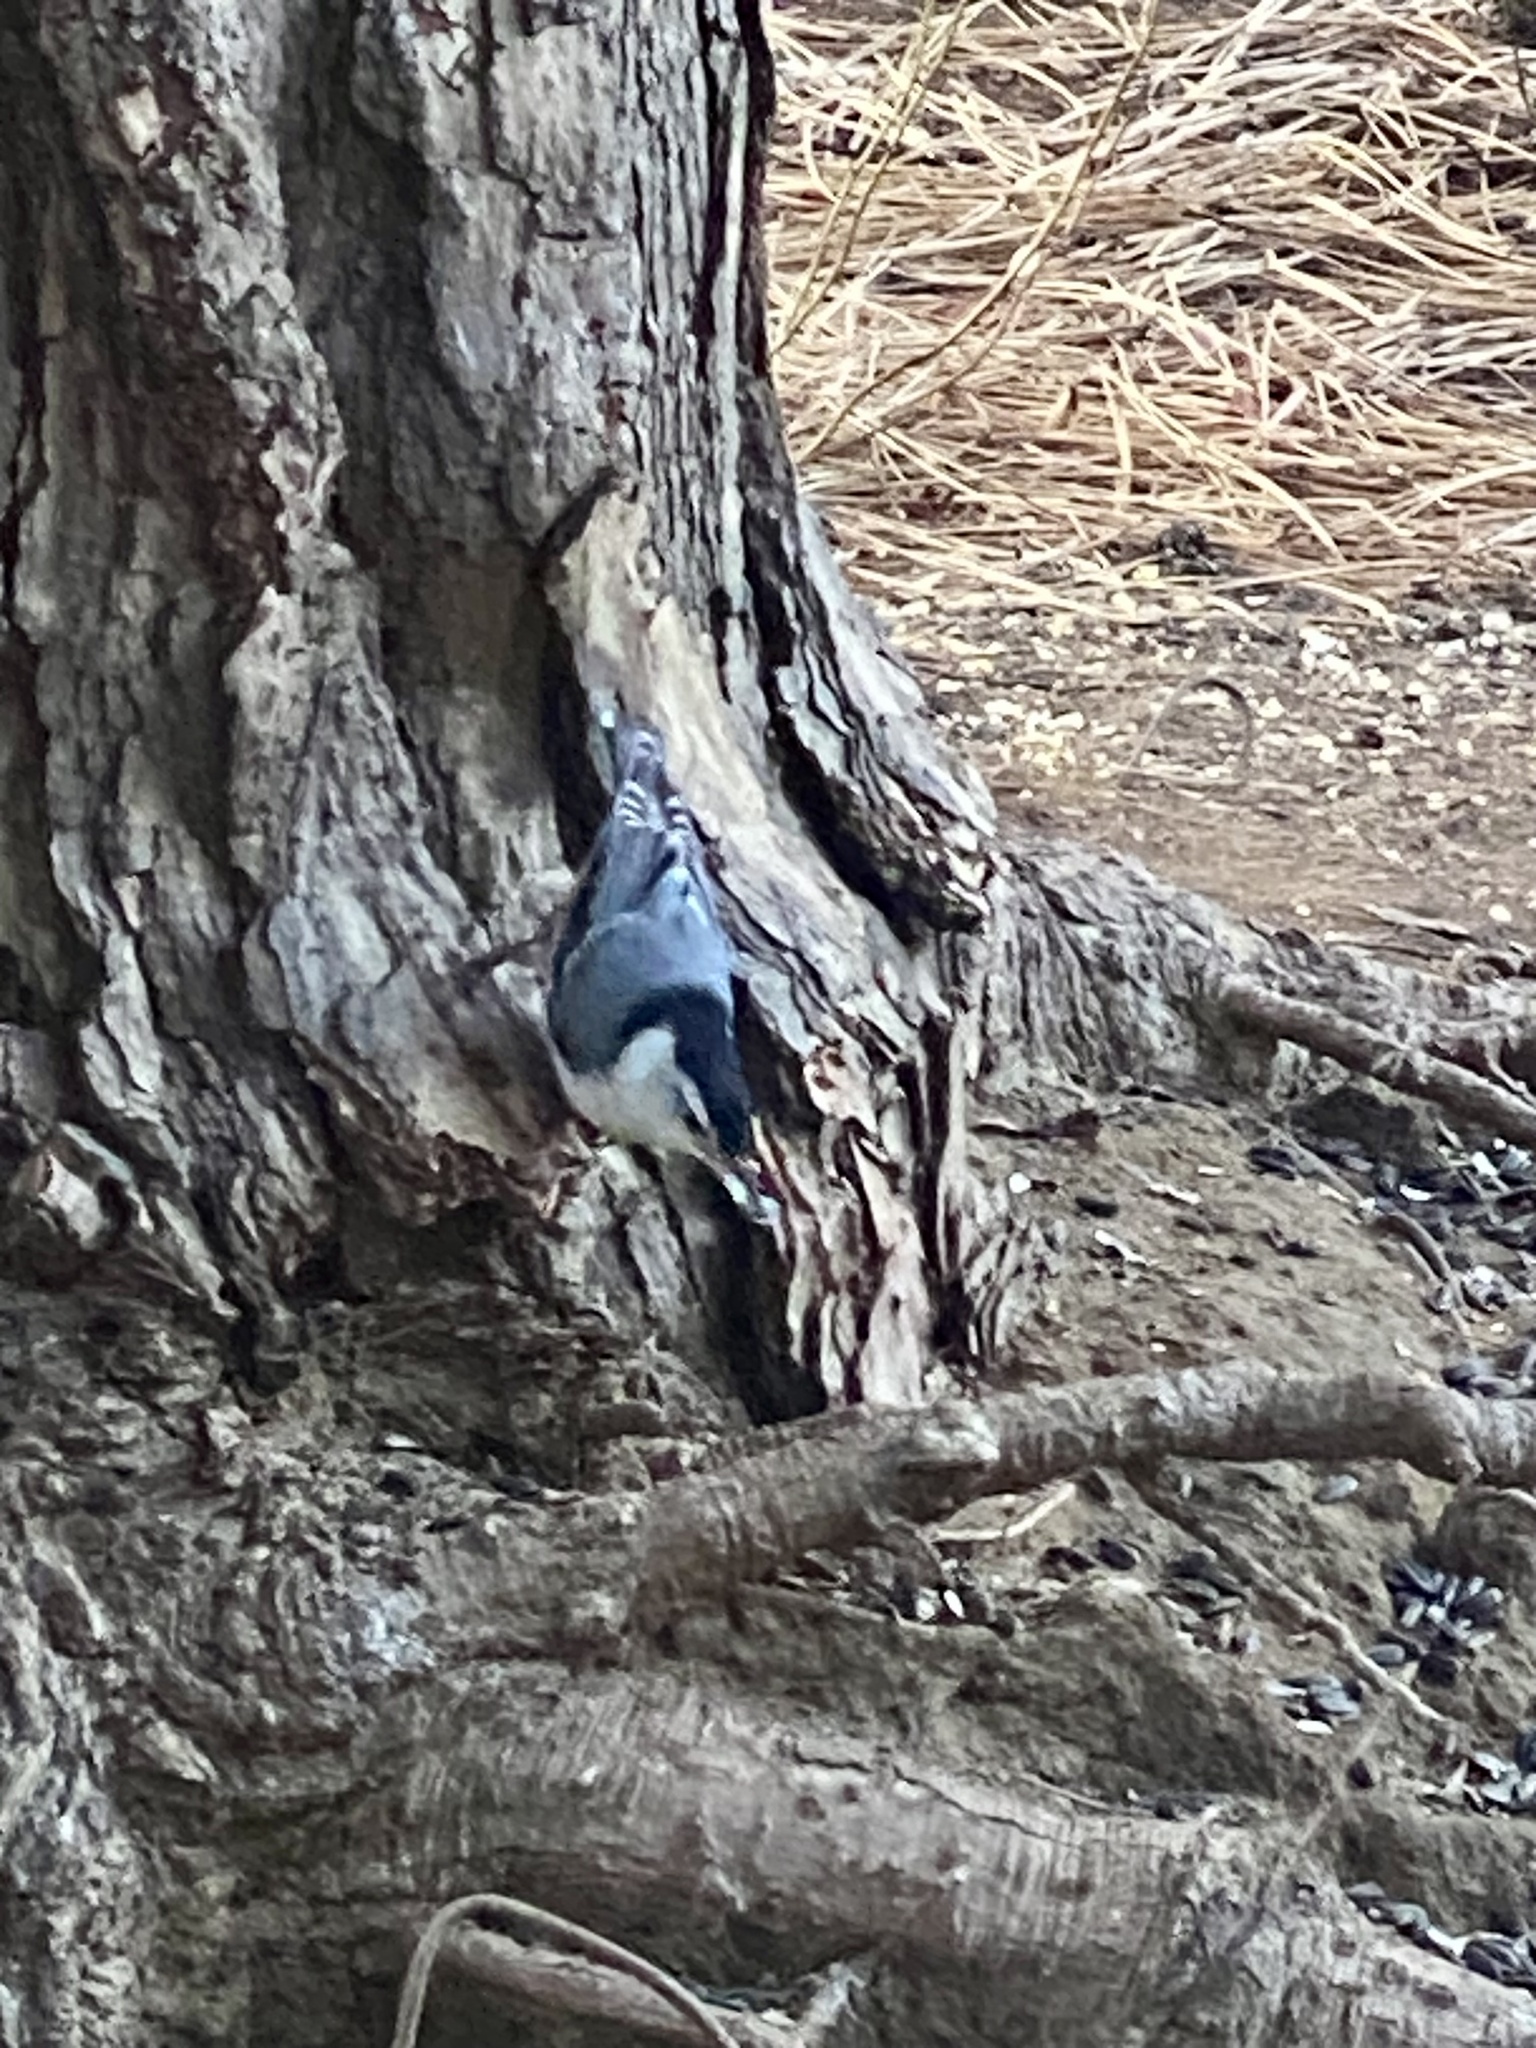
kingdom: Animalia
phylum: Chordata
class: Aves
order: Passeriformes
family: Sittidae
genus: Sitta
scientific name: Sitta carolinensis
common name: White-breasted nuthatch
